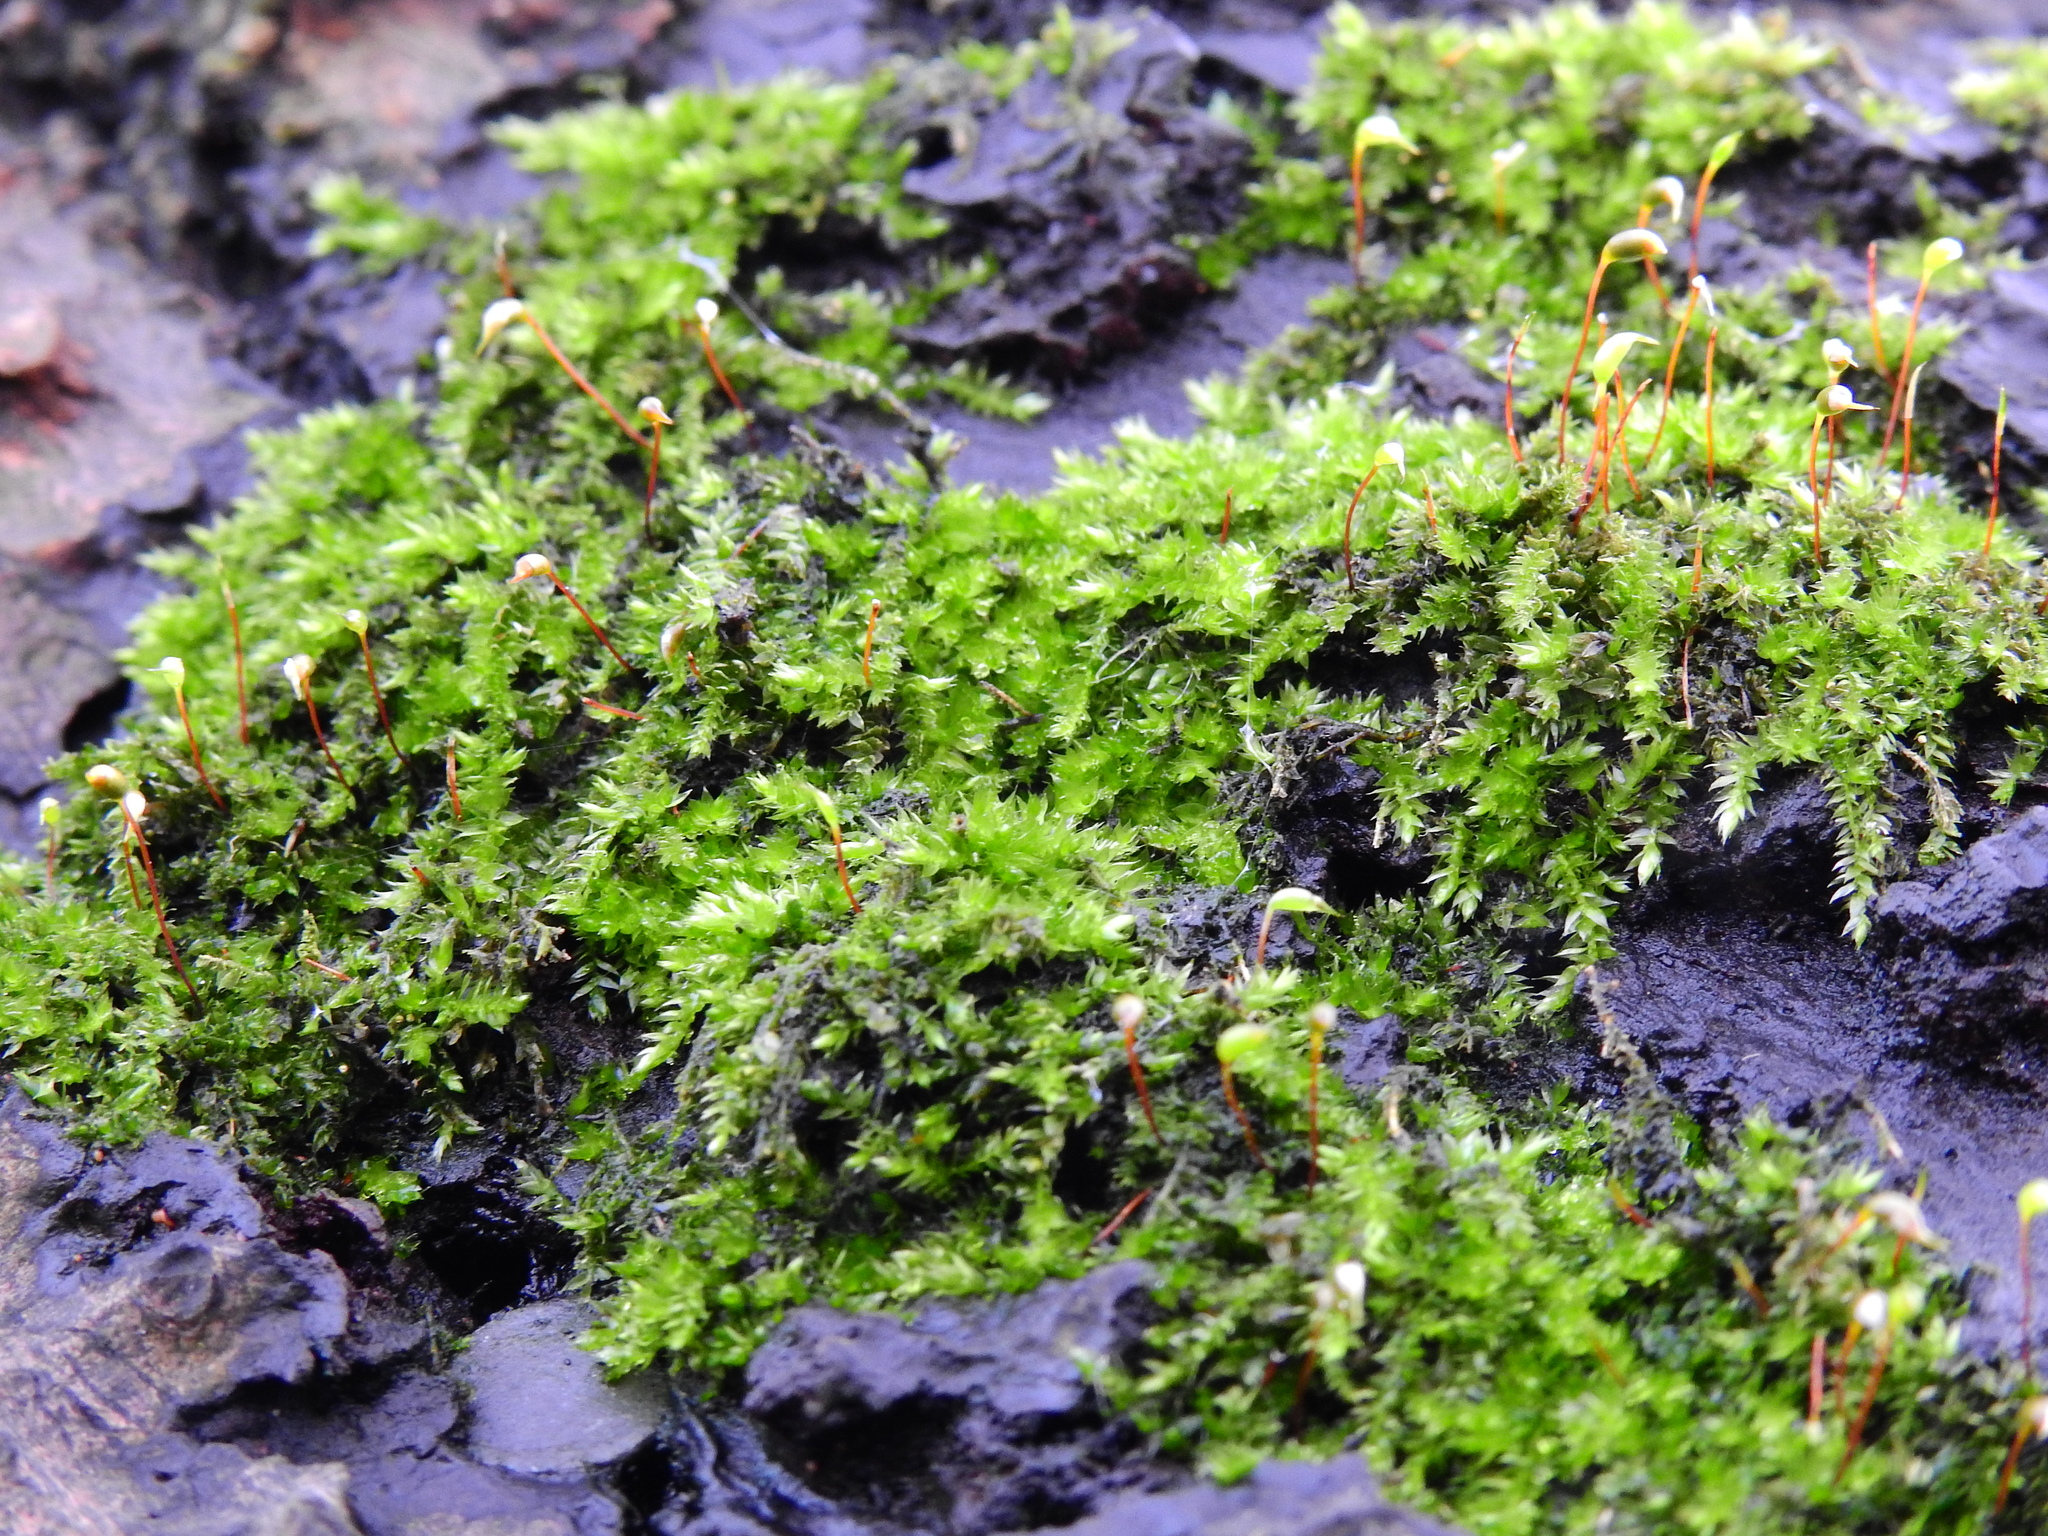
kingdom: Plantae
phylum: Bryophyta
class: Bryopsida
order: Hypnales
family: Brachytheciaceae
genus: Rhynchostegium
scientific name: Rhynchostegium confertum
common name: Clustered feather-moss
